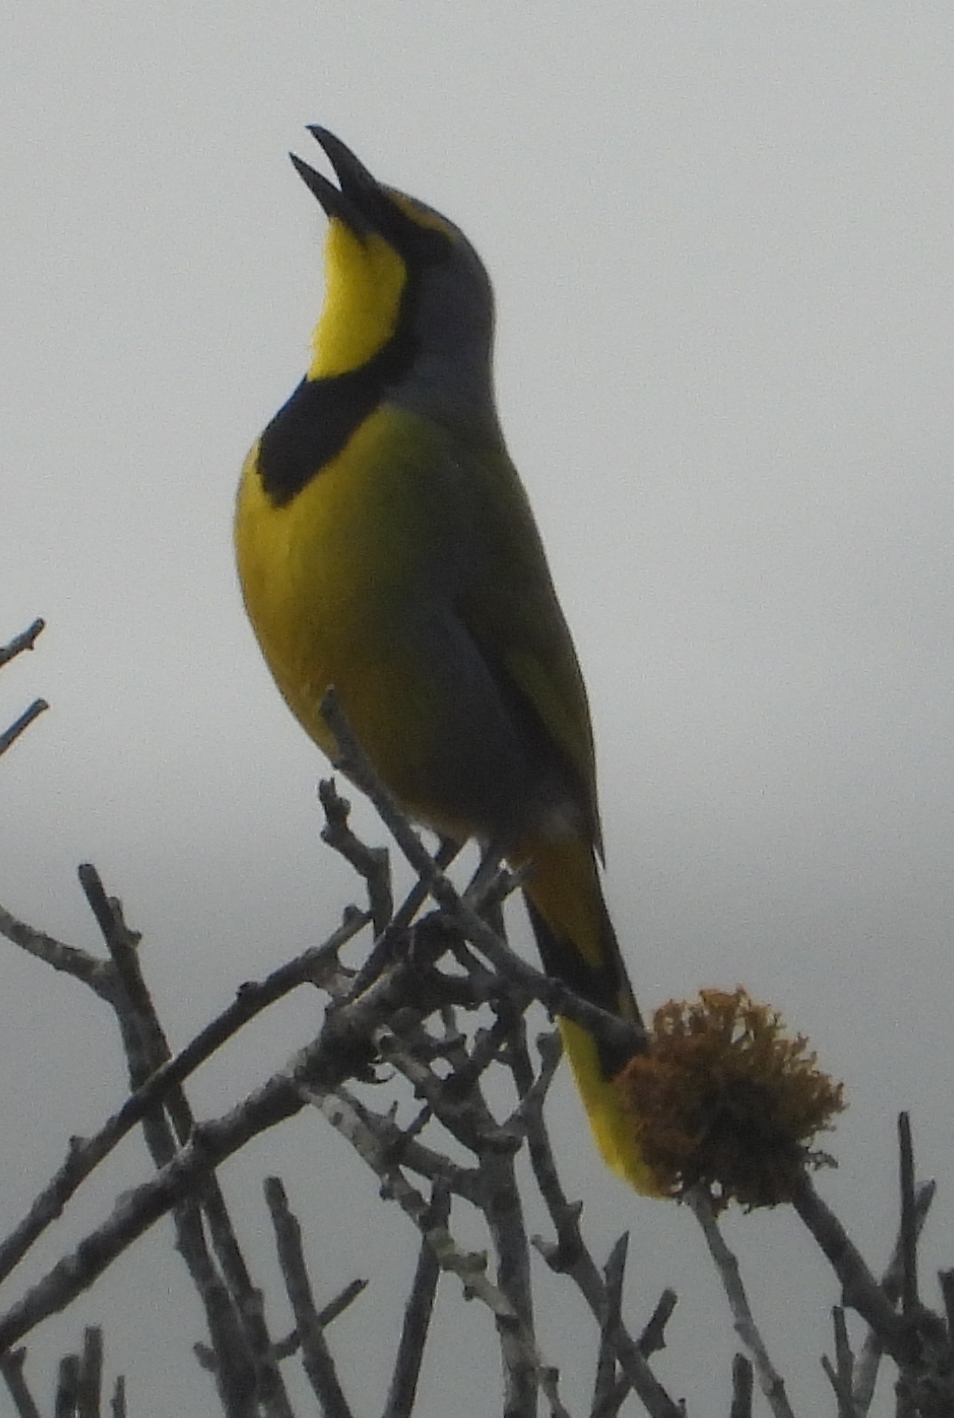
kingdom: Animalia
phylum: Chordata
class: Aves
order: Passeriformes
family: Malaconotidae
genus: Telophorus
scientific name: Telophorus zeylonus
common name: Bokmakierie
